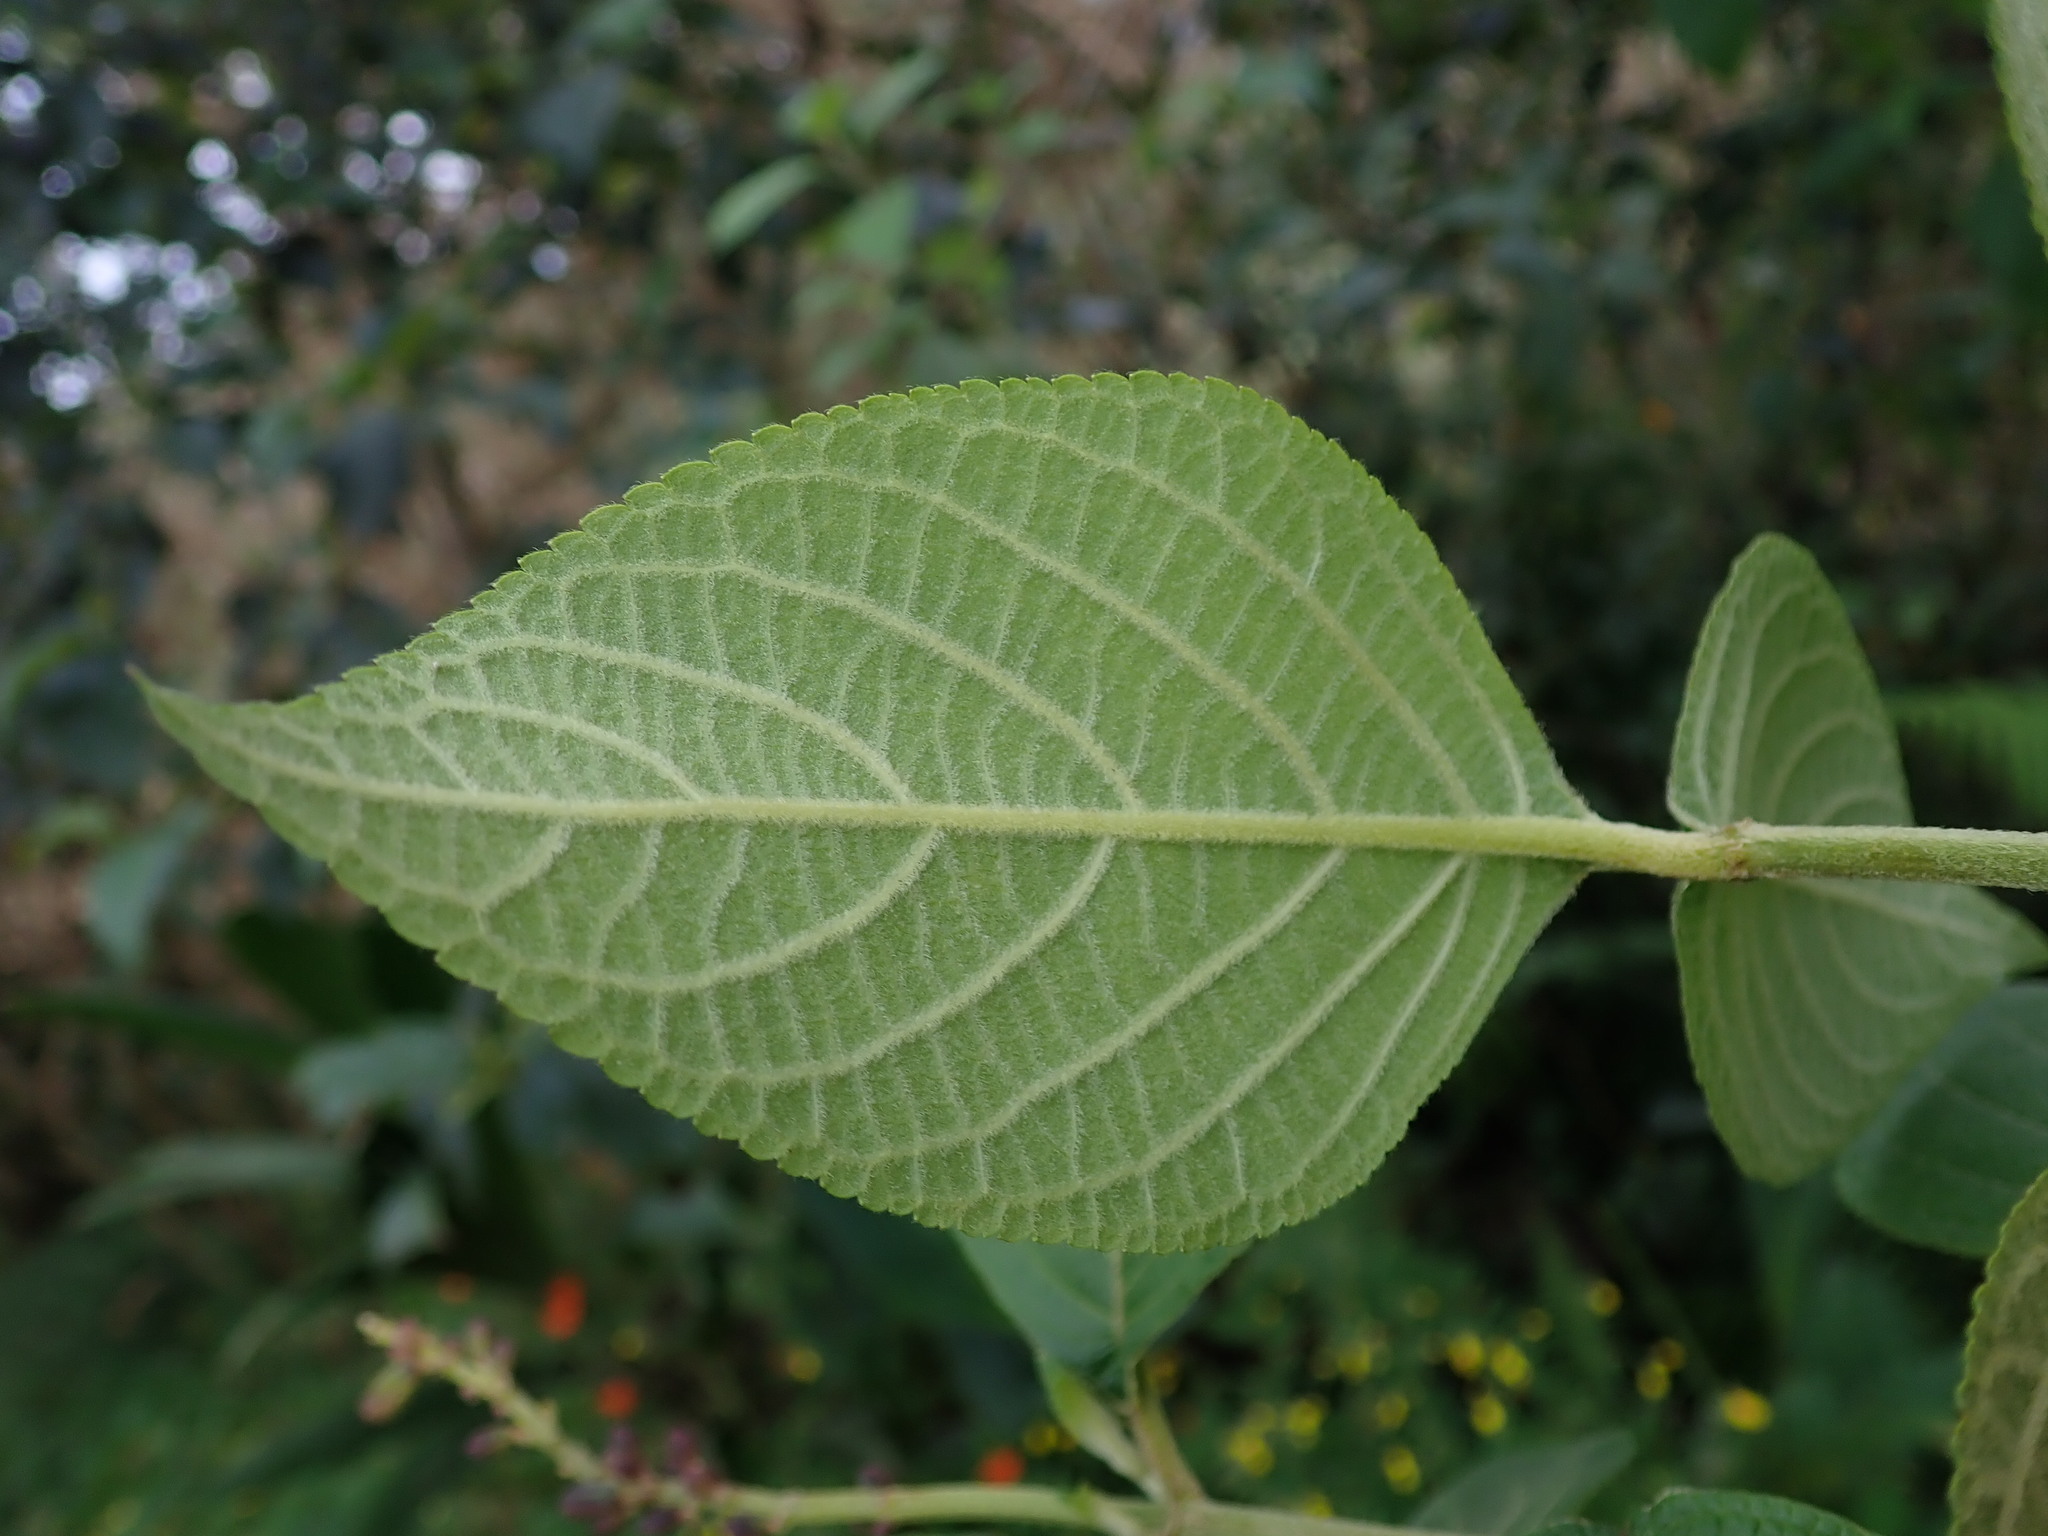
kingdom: Plantae
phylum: Tracheophyta
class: Magnoliopsida
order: Lamiales
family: Lamiaceae
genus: Salvia
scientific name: Salvia tortuosa
